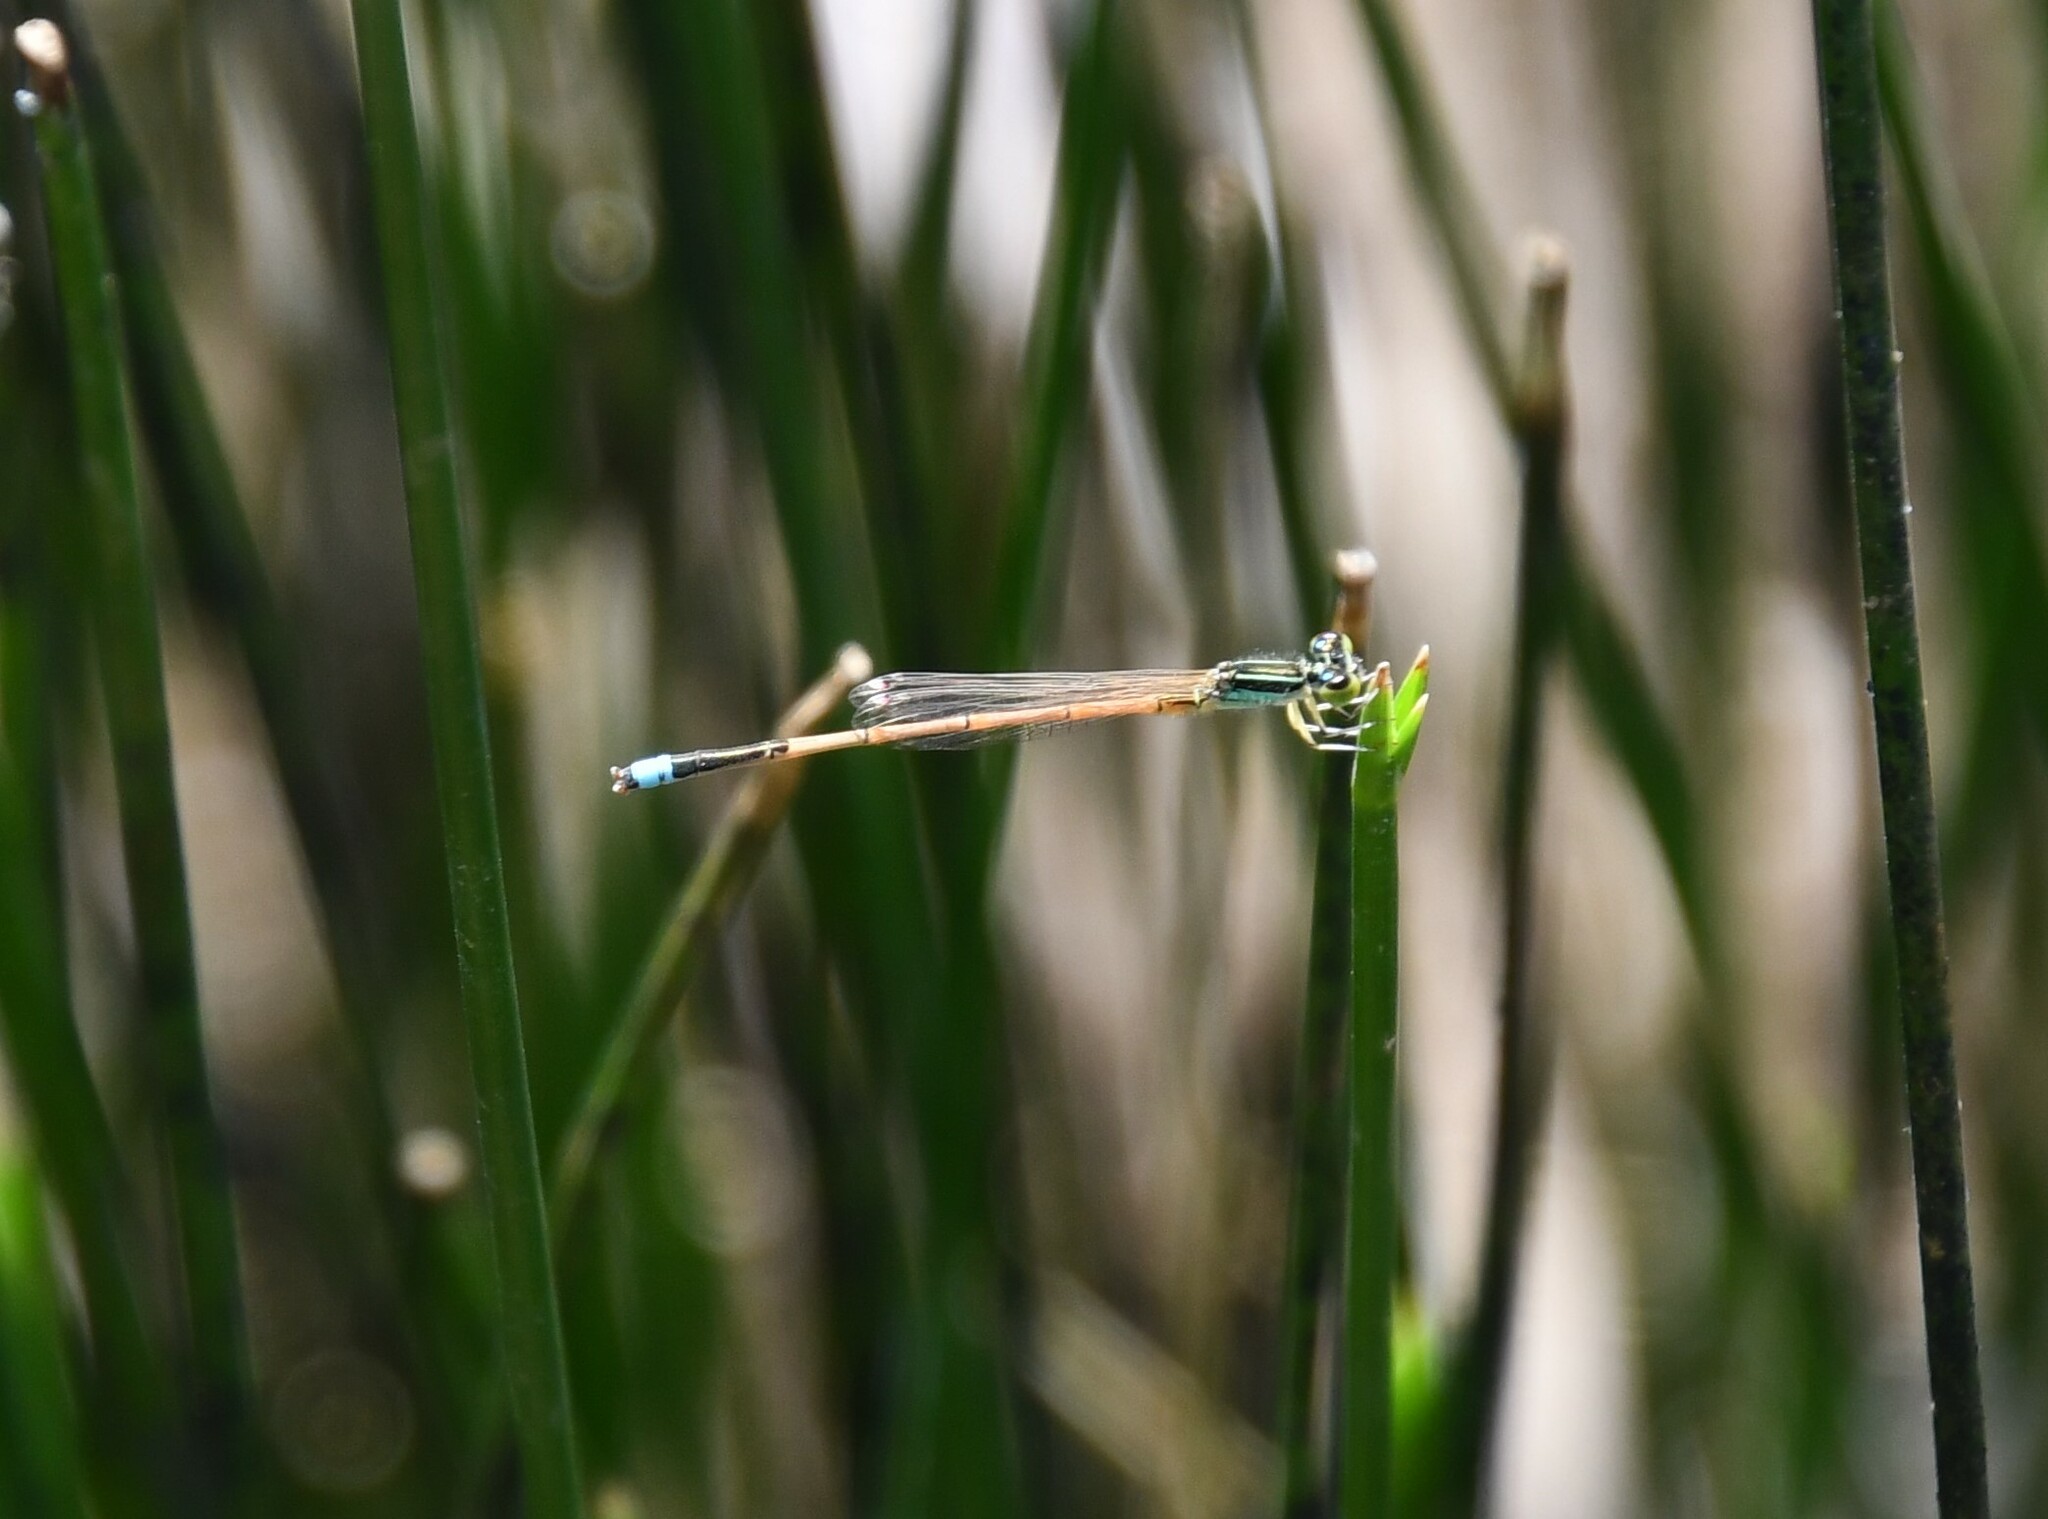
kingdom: Animalia
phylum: Arthropoda
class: Insecta
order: Odonata
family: Coenagrionidae
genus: Ischnura
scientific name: Ischnura aurora
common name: Gossamer damselfly
